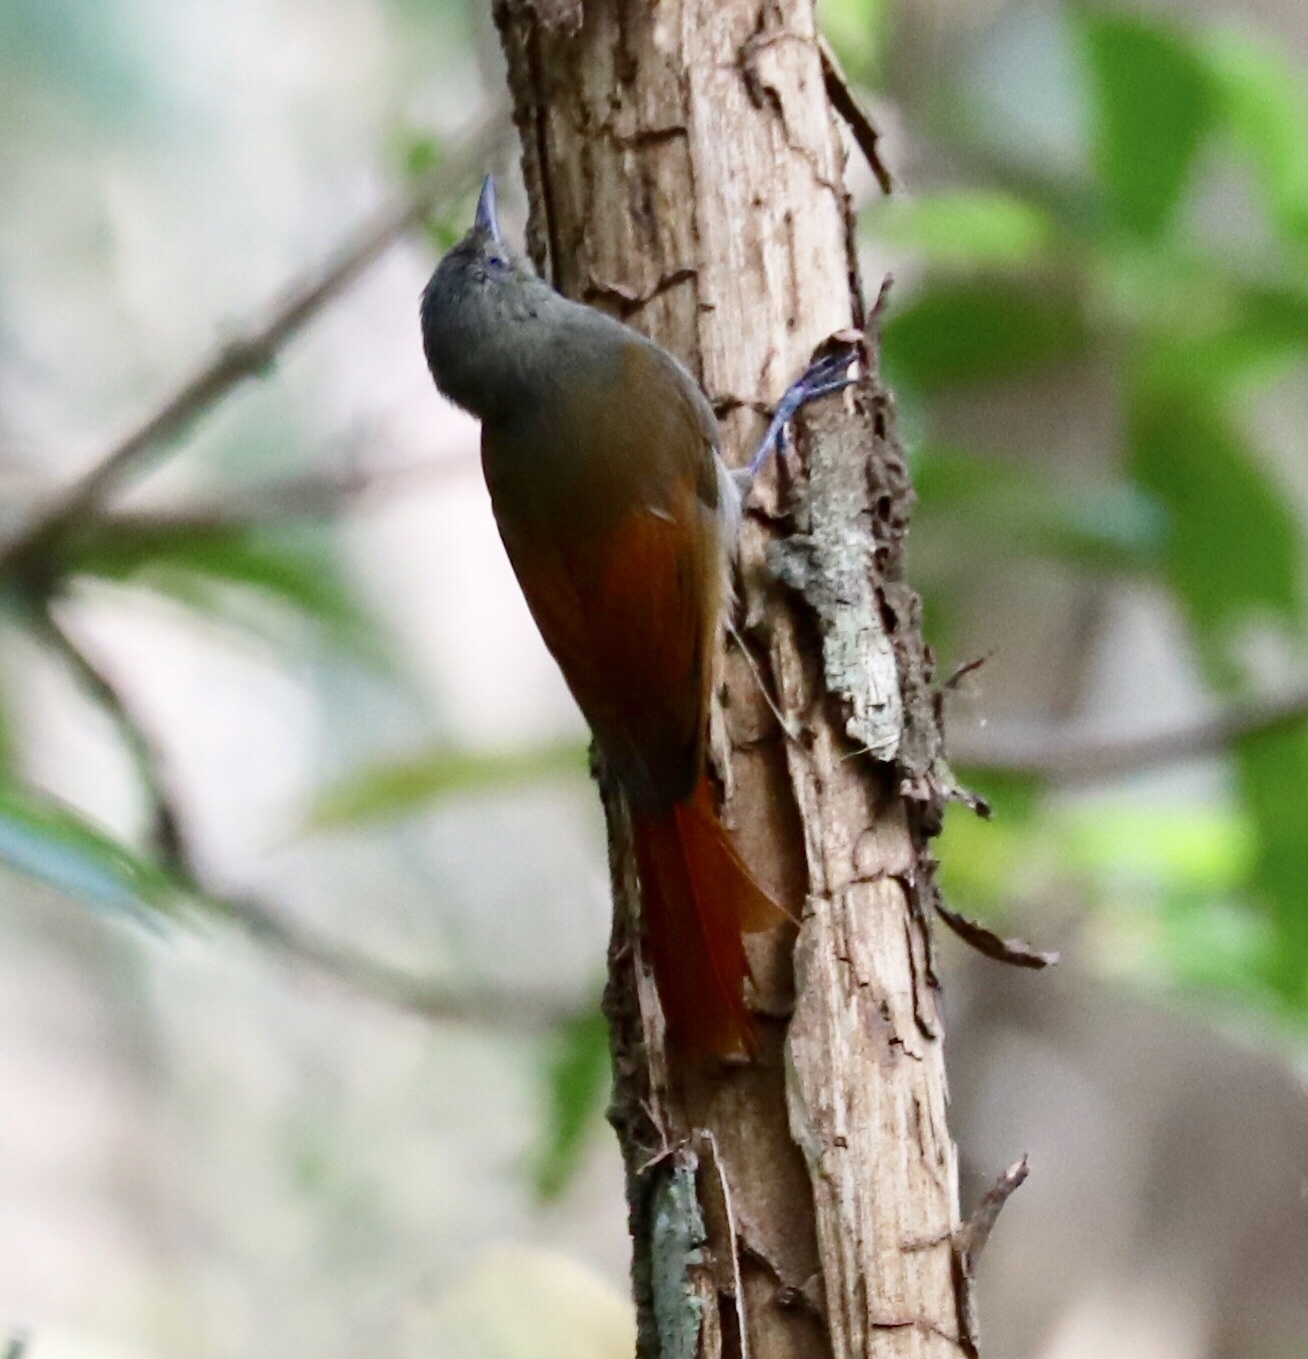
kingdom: Animalia
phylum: Chordata
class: Aves
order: Passeriformes
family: Furnariidae
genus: Sittasomus
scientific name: Sittasomus griseicapillus
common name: Olivaceous woodcreeper
